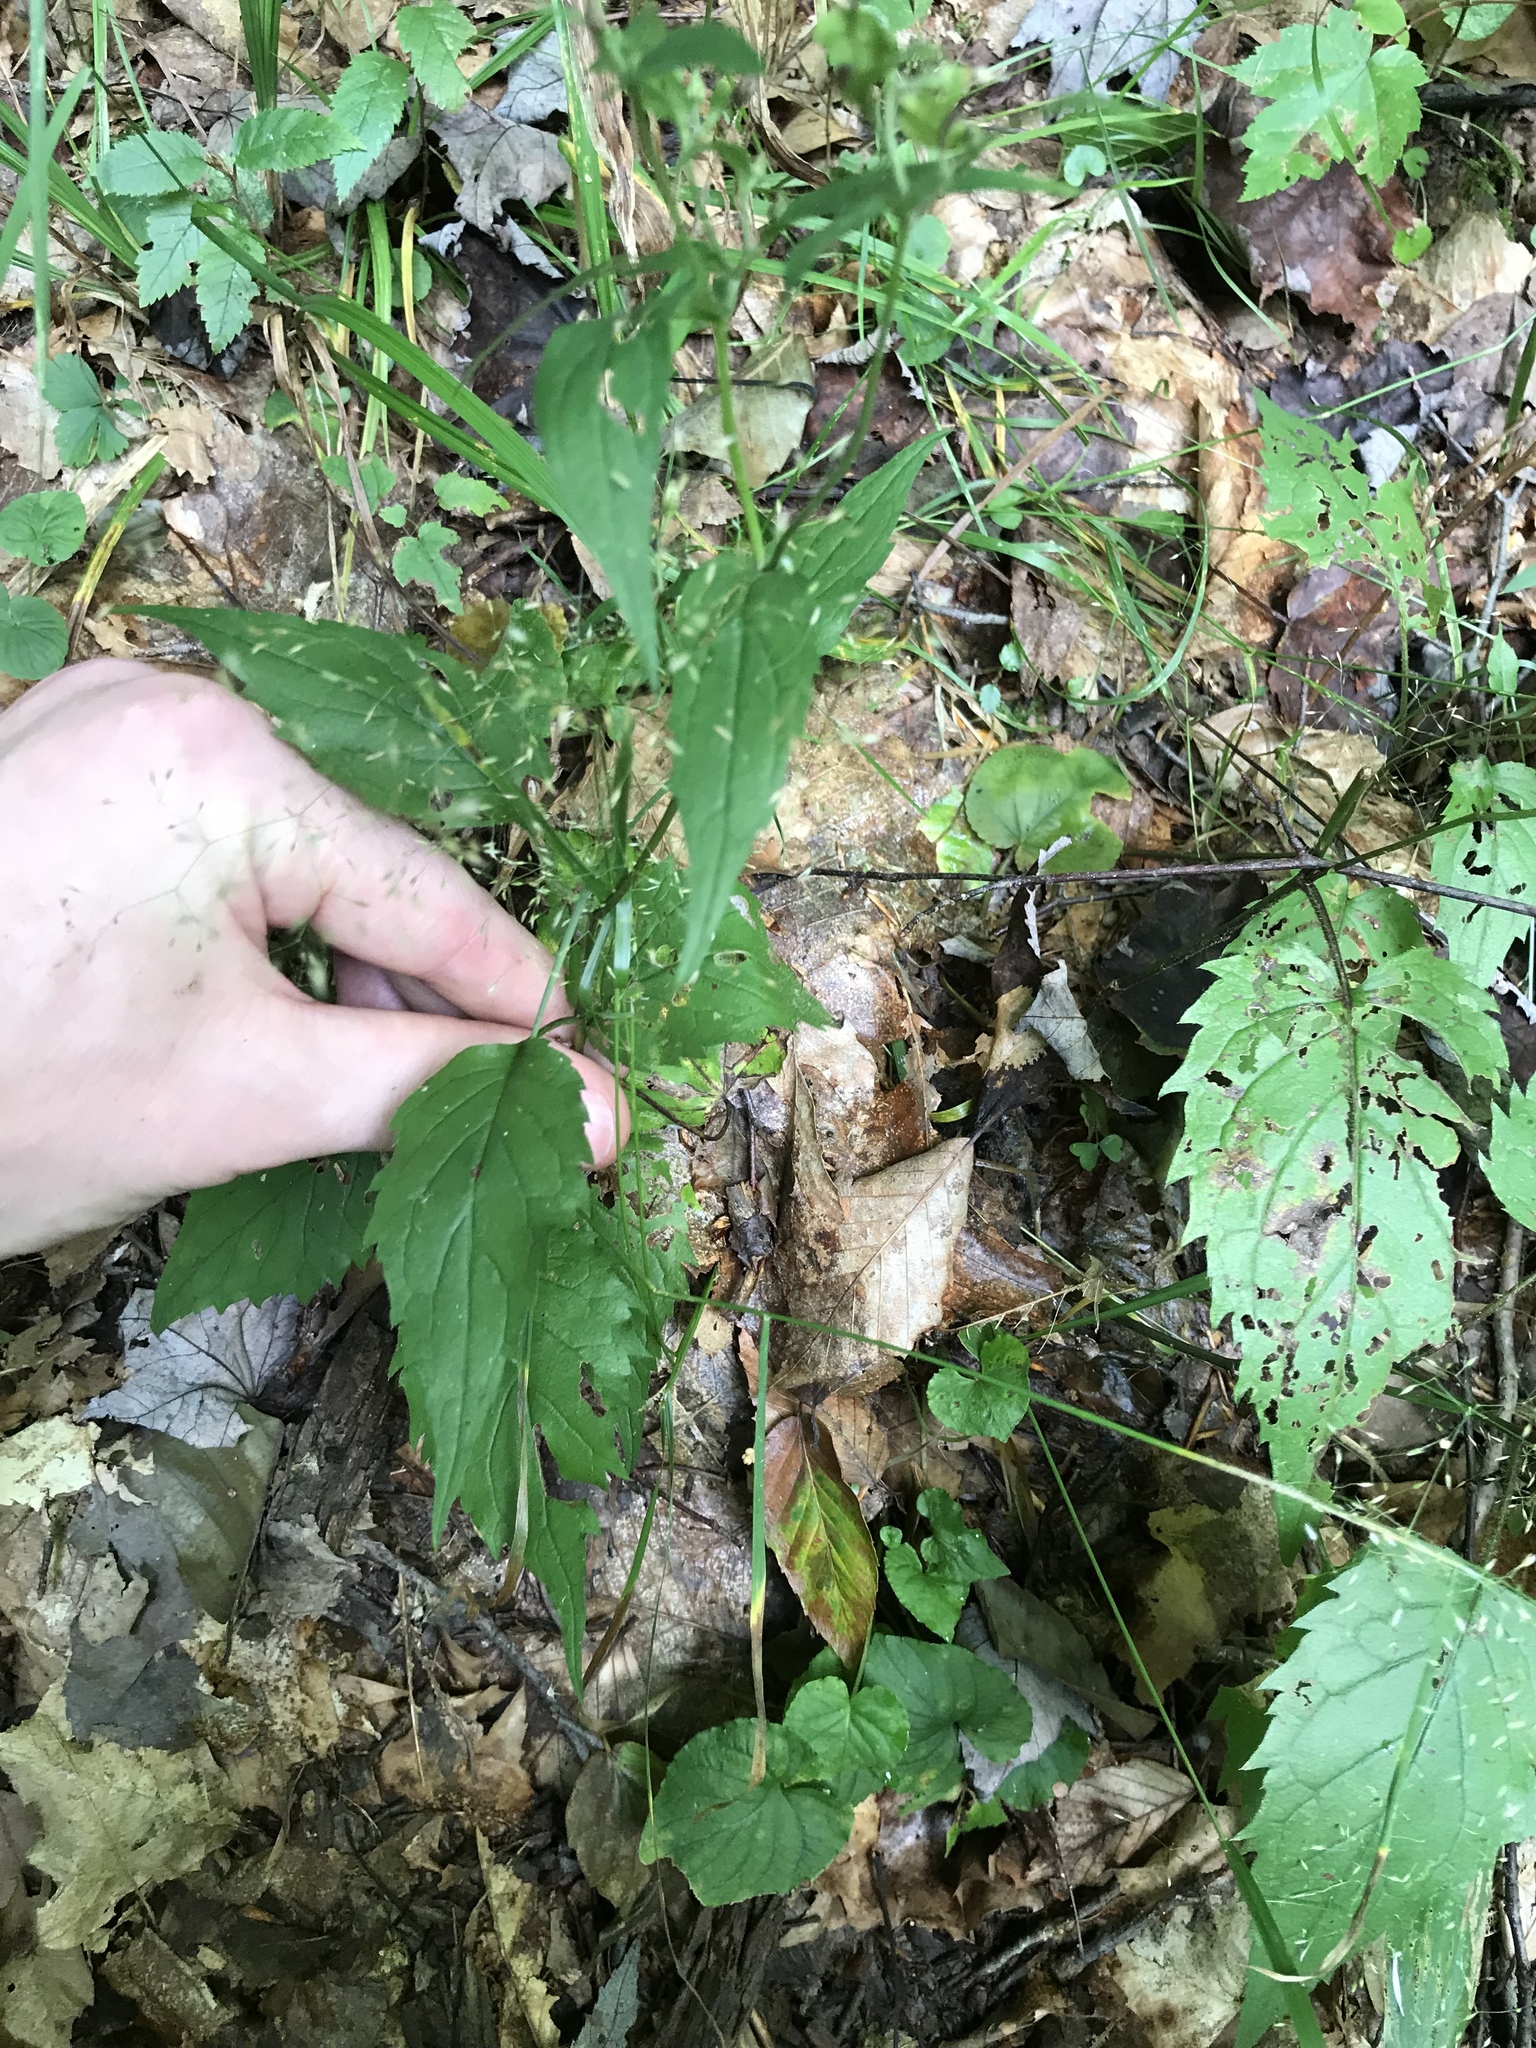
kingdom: Plantae
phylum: Tracheophyta
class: Magnoliopsida
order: Asterales
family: Asteraceae
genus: Eurybia
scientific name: Eurybia divaricata
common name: White wood aster
